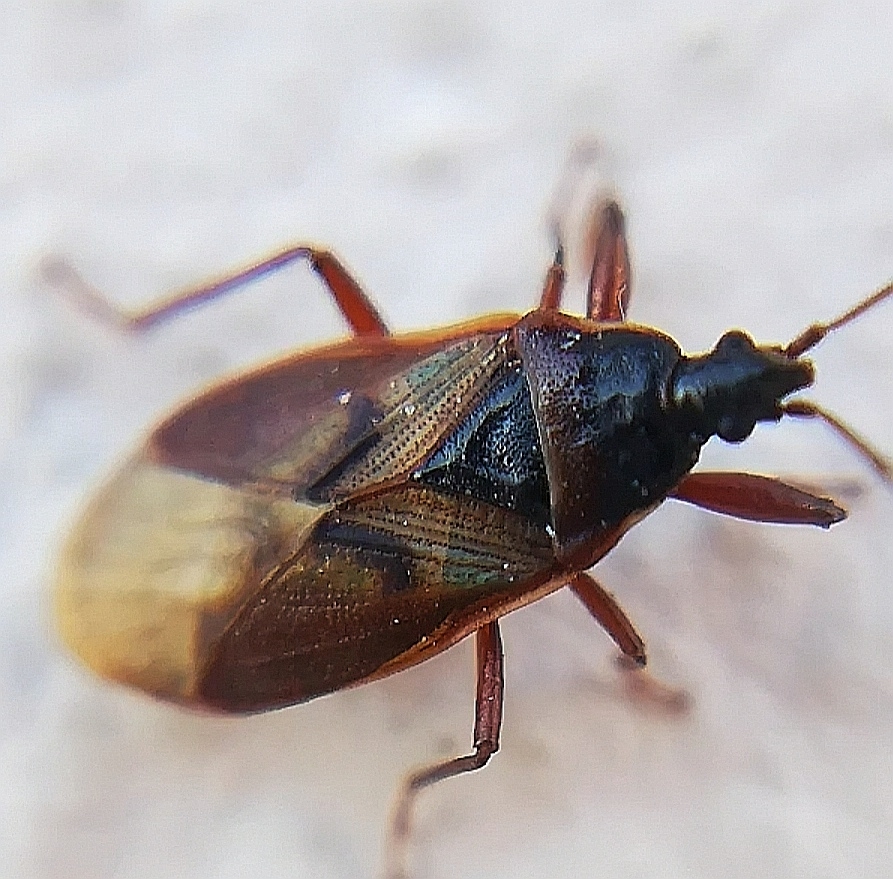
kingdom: Animalia
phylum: Arthropoda
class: Insecta
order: Hemiptera
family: Rhyparochromidae
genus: Gastrodes
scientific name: Gastrodes abietum
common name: Spruce cone bug
